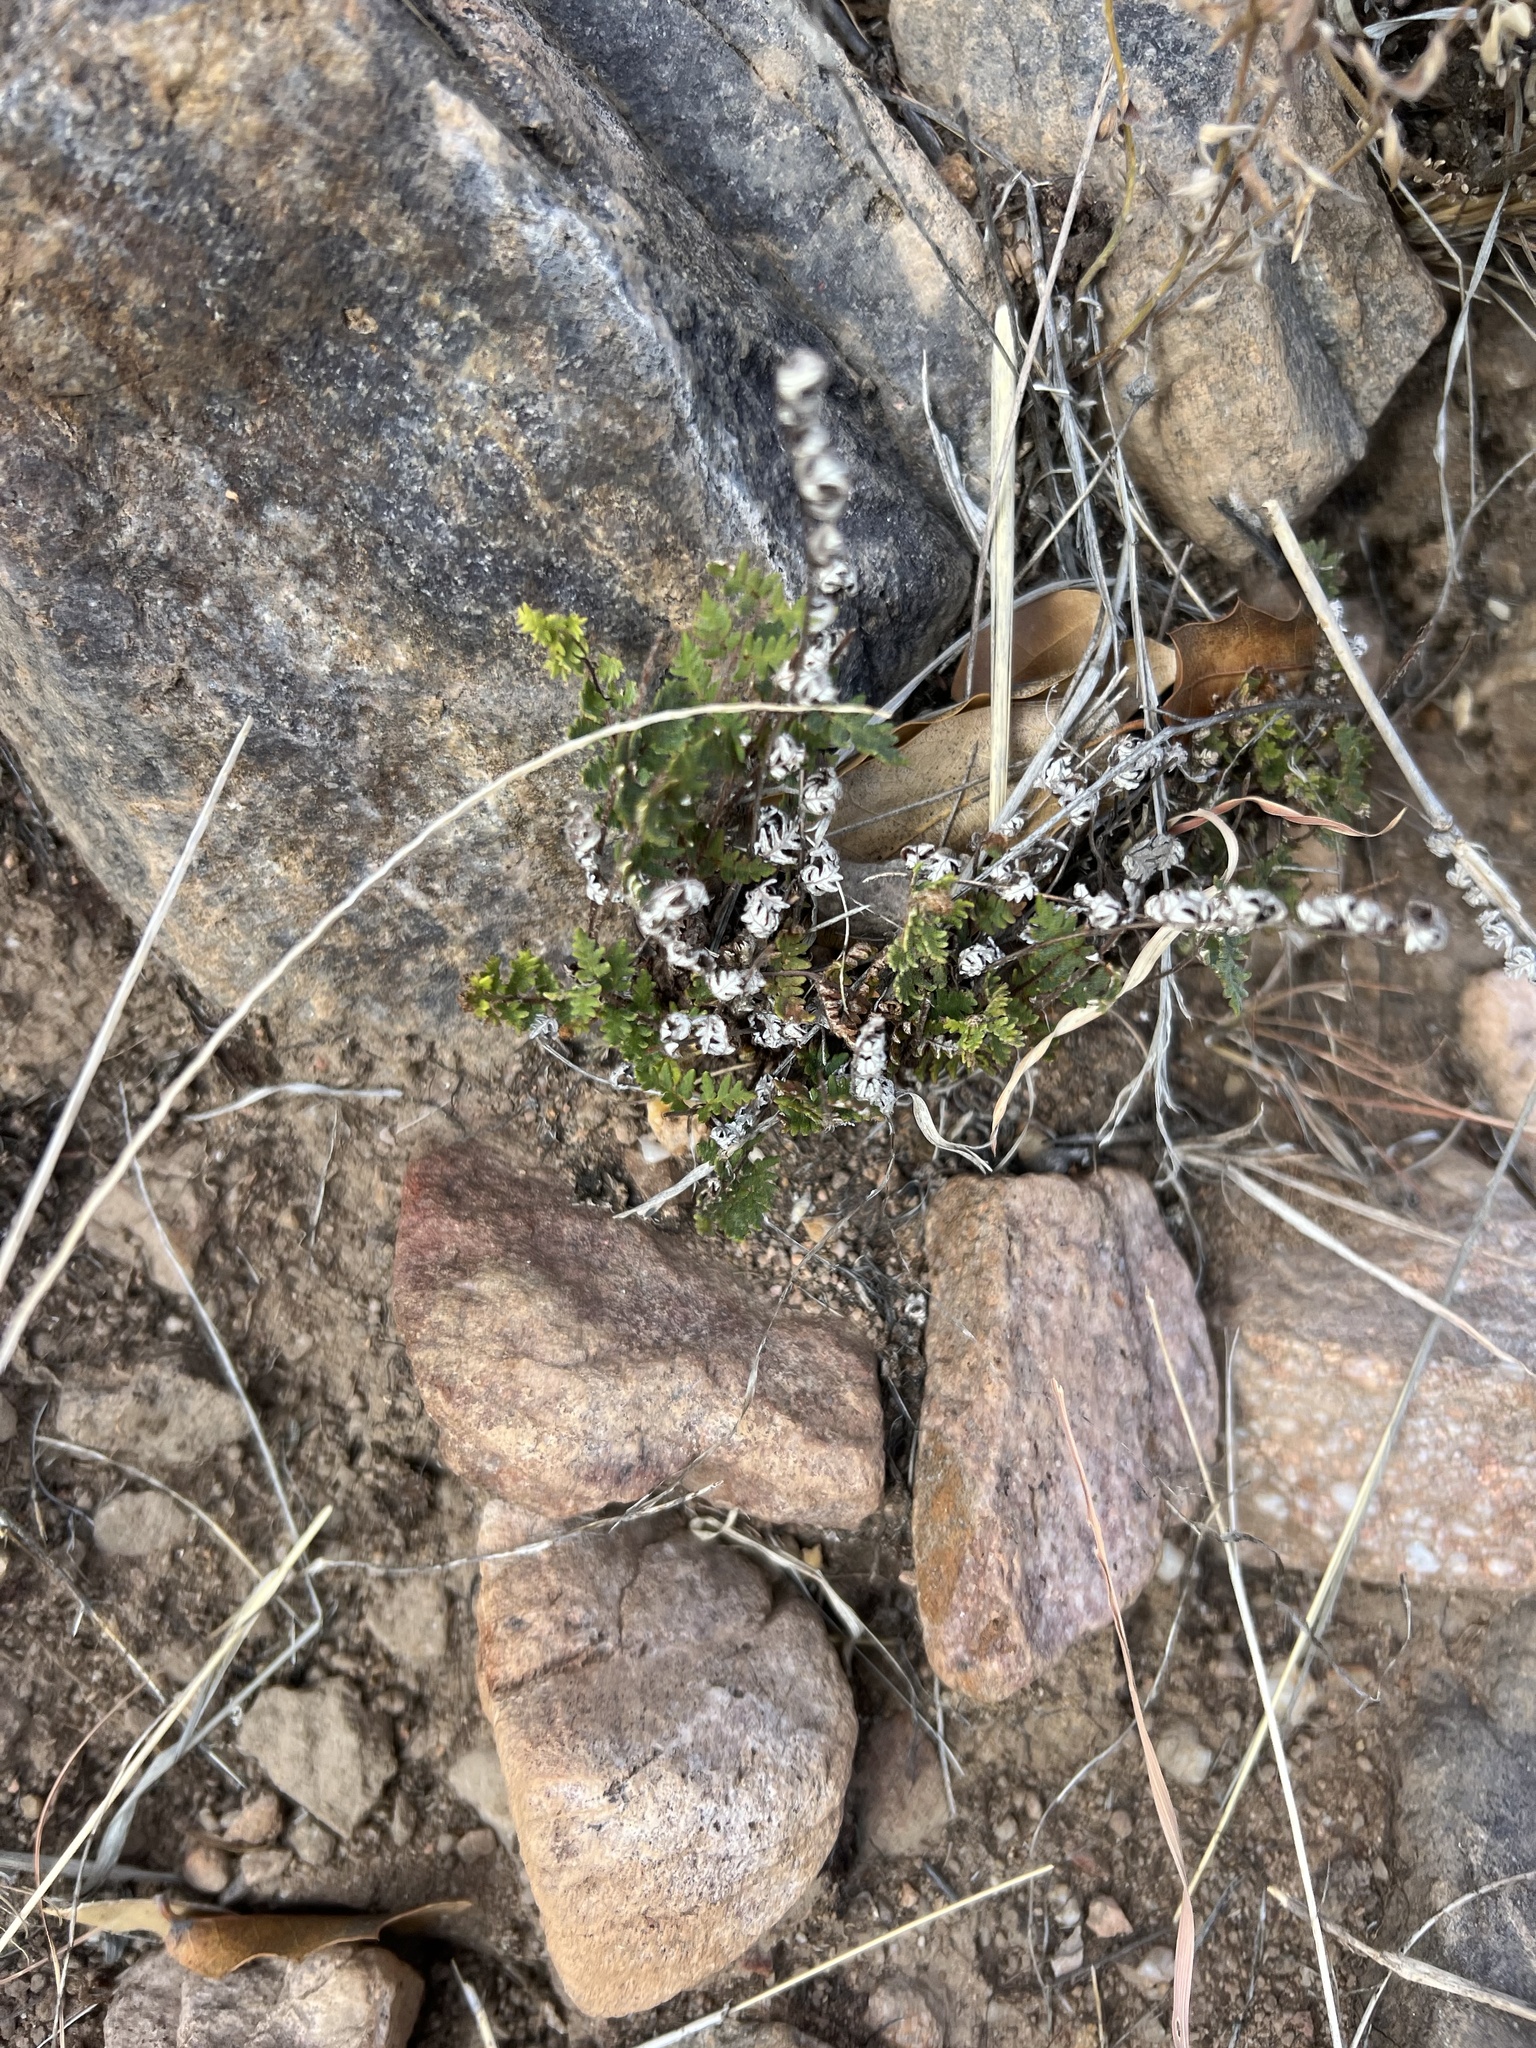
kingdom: Plantae
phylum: Tracheophyta
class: Polypodiopsida
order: Polypodiales
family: Pteridaceae
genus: Myriopteris
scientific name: Myriopteris aurea
